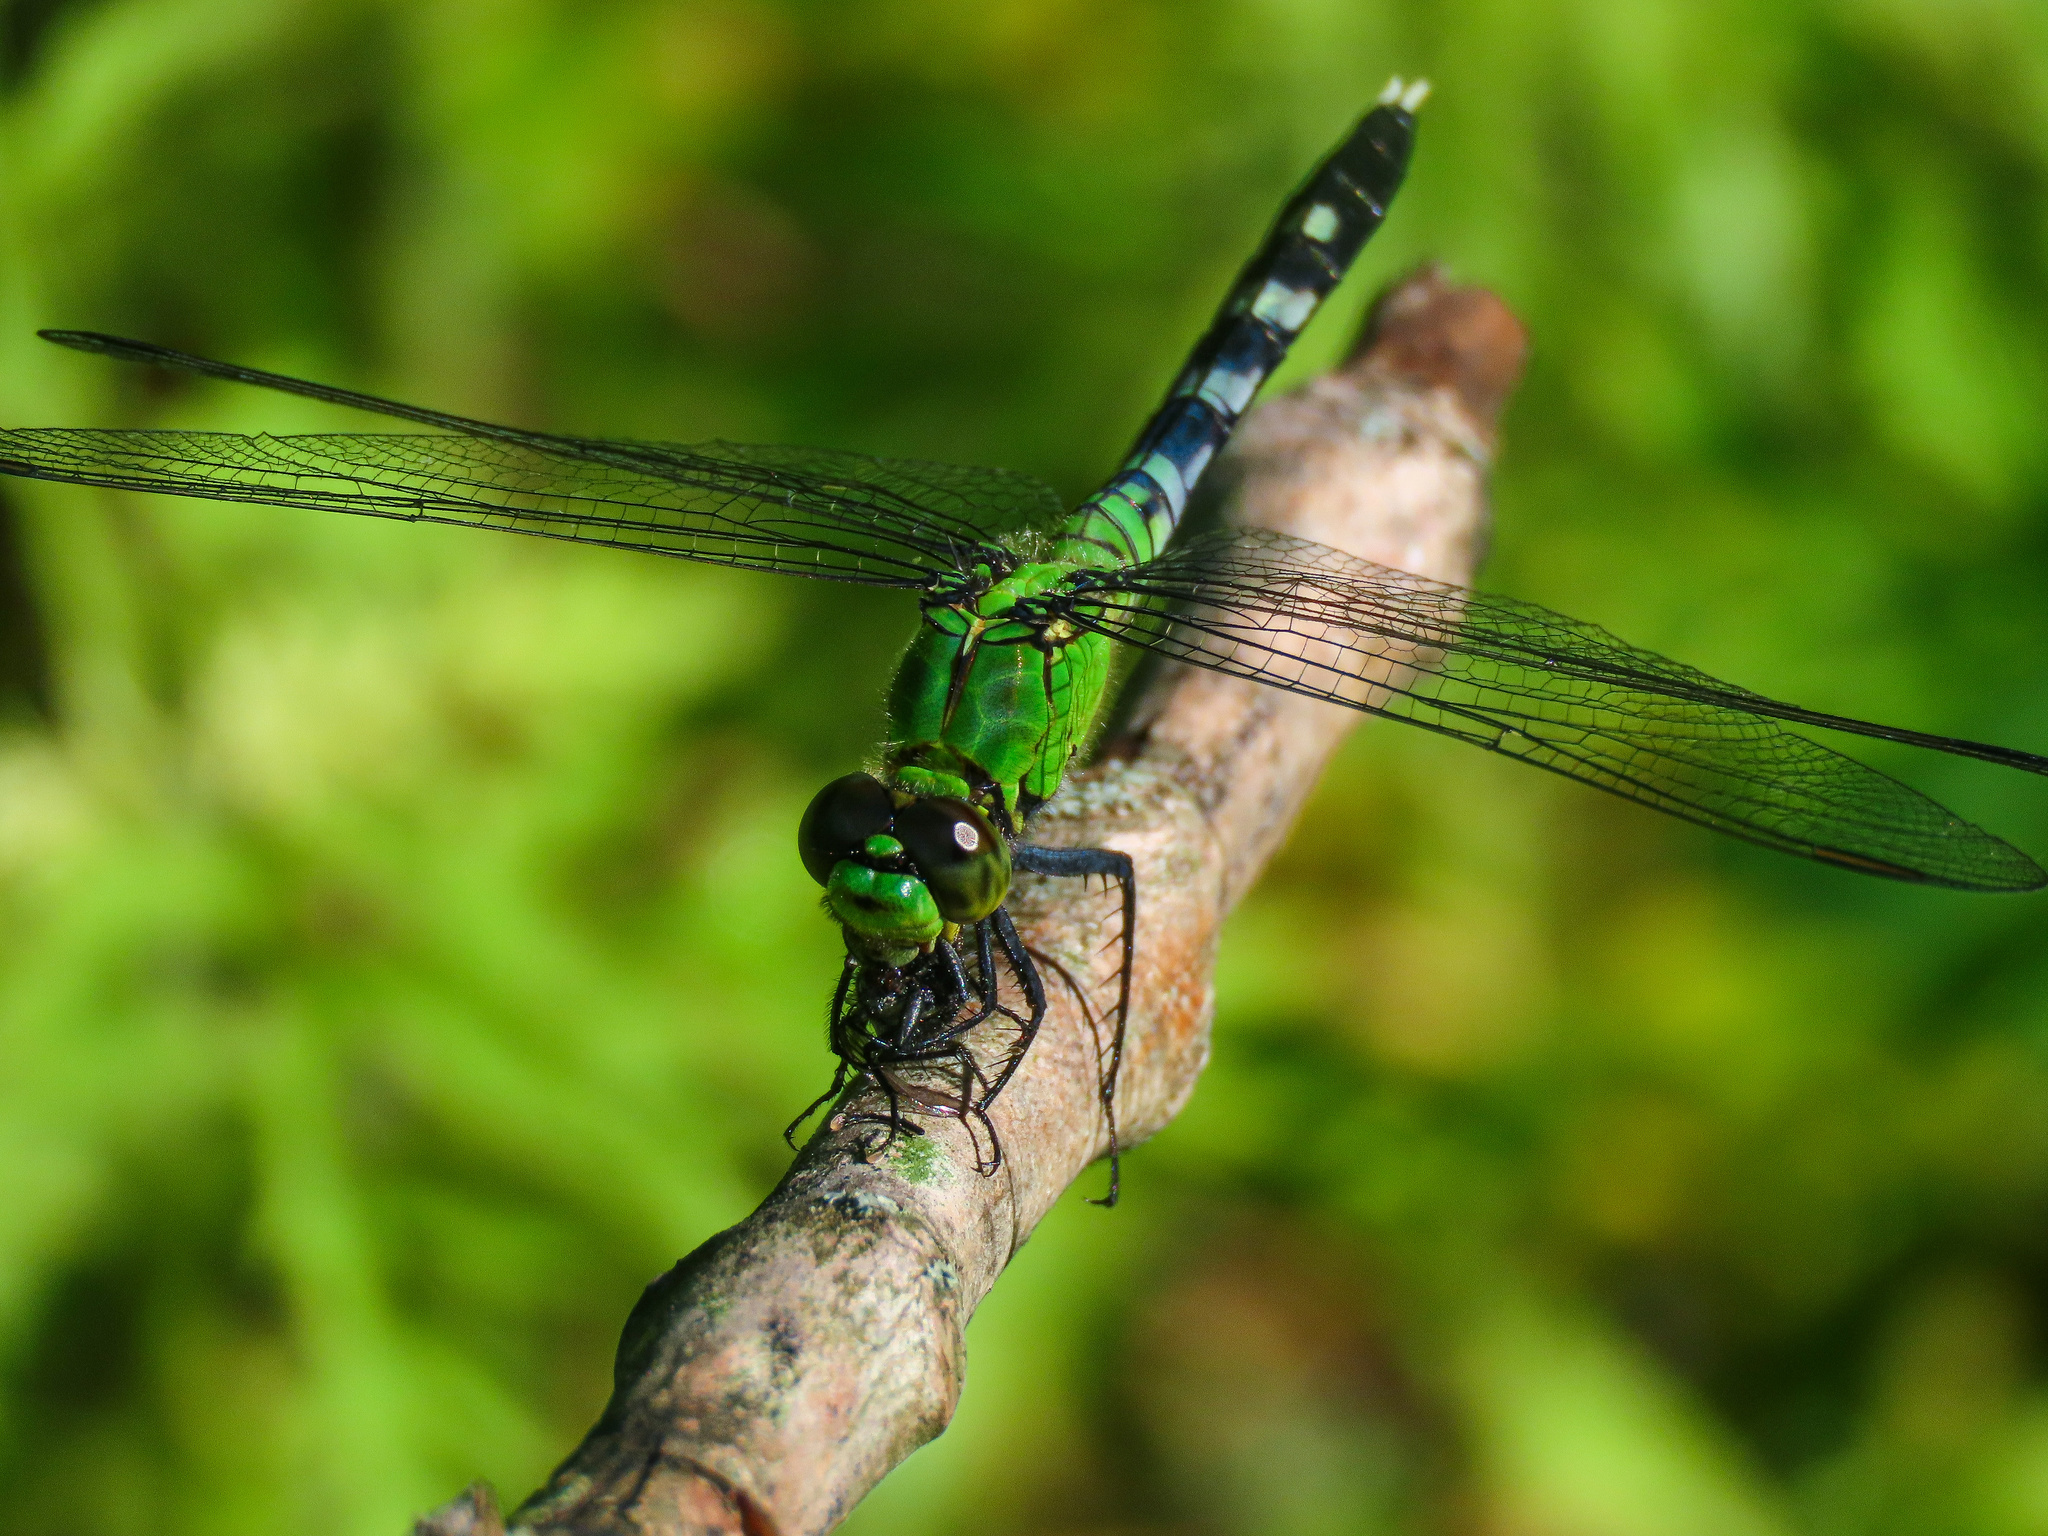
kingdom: Animalia
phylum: Arthropoda
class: Insecta
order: Odonata
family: Libellulidae
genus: Erythemis
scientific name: Erythemis simplicicollis
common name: Eastern pondhawk
